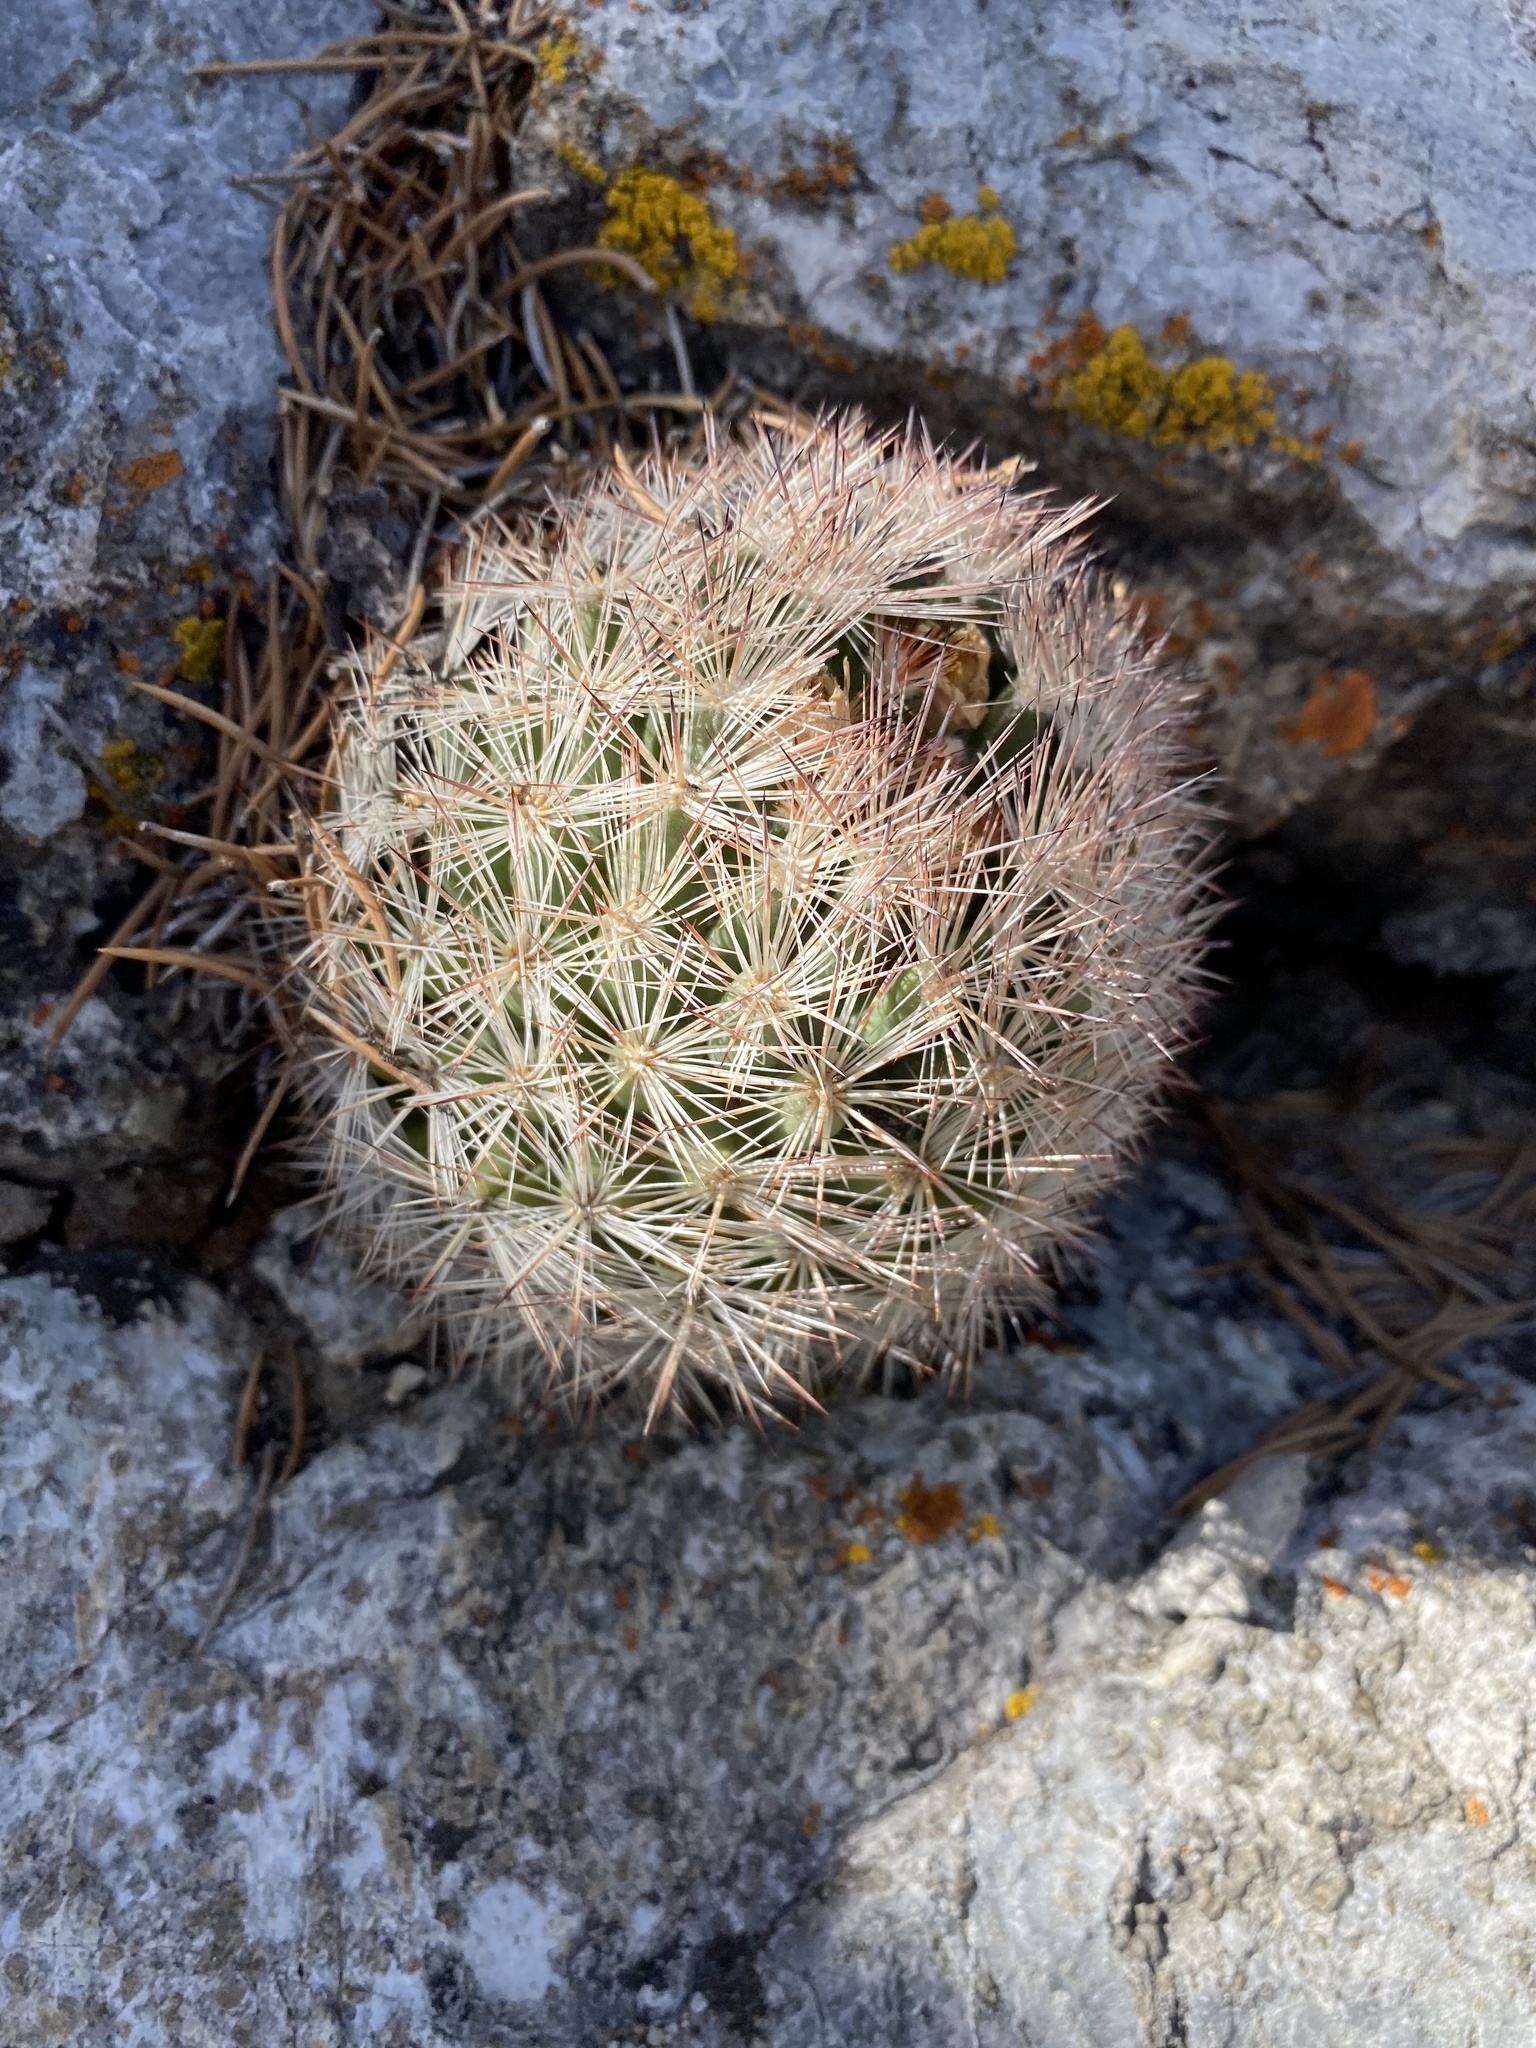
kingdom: Plantae
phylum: Tracheophyta
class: Magnoliopsida
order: Caryophyllales
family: Cactaceae
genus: Pelecyphora
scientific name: Pelecyphora vivipara
